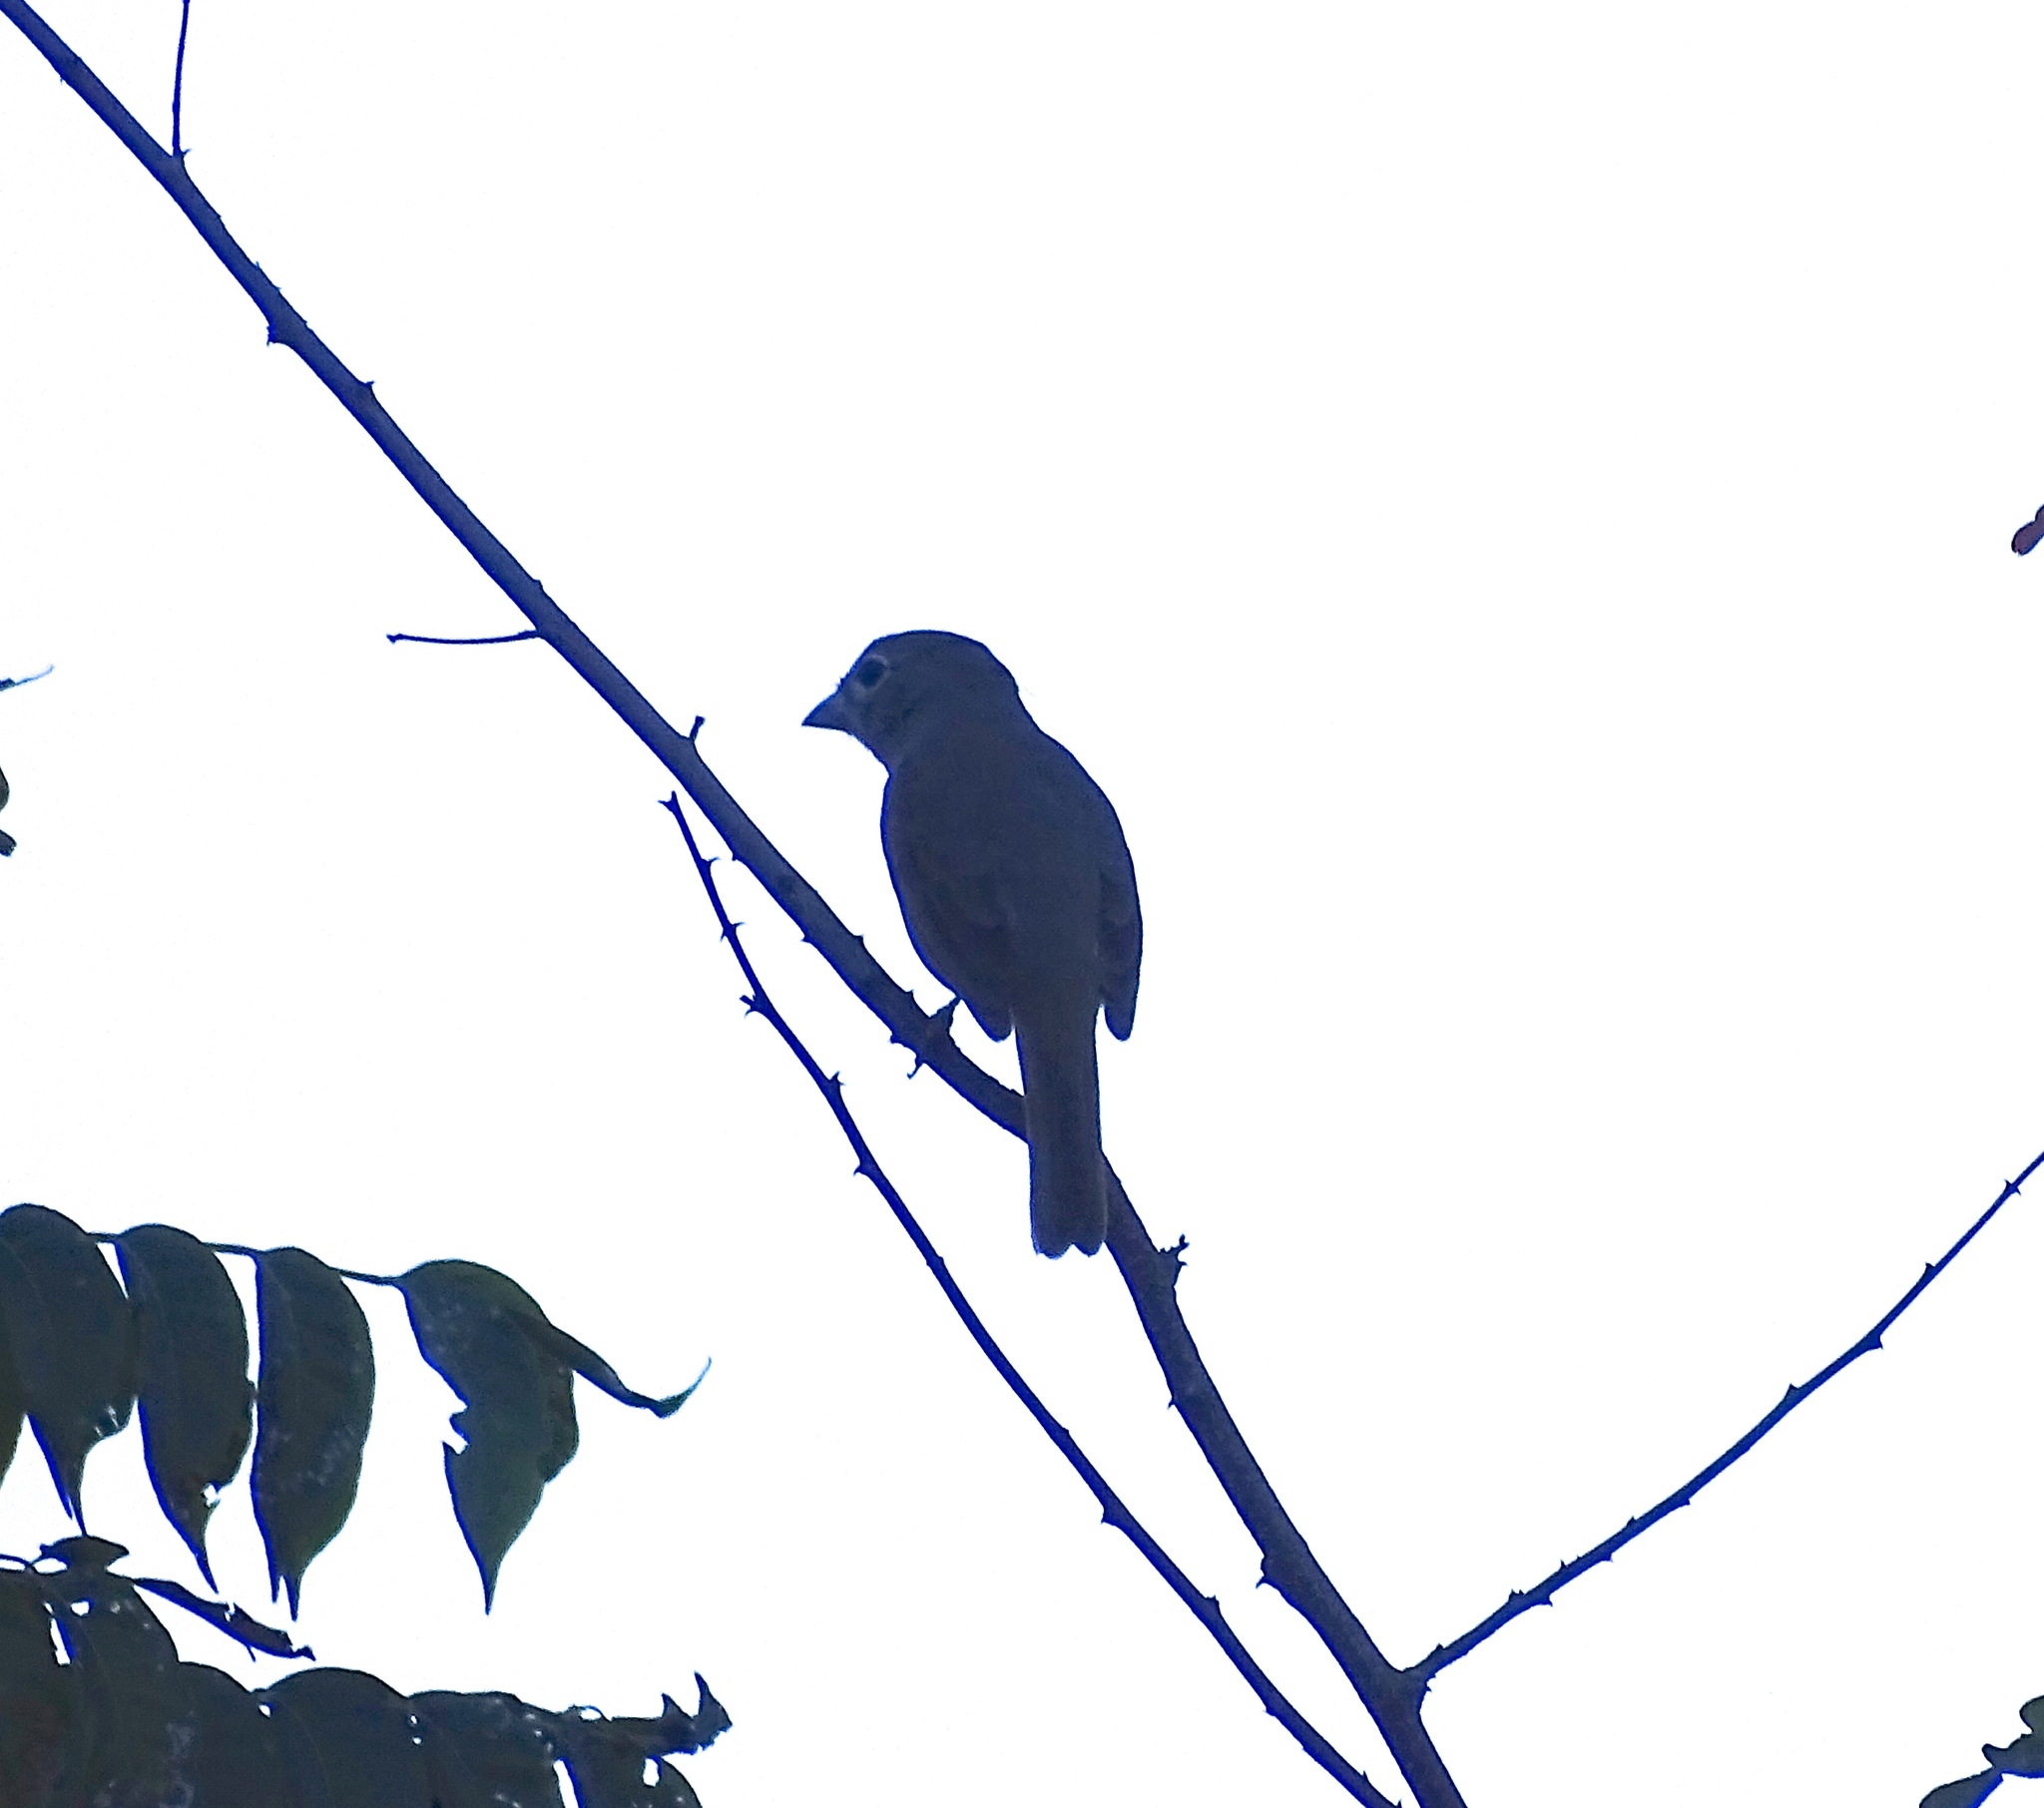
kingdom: Animalia
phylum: Chordata
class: Aves
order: Passeriformes
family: Cardinalidae
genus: Piranga
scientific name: Piranga roseogularis
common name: Rose-throated tanager
